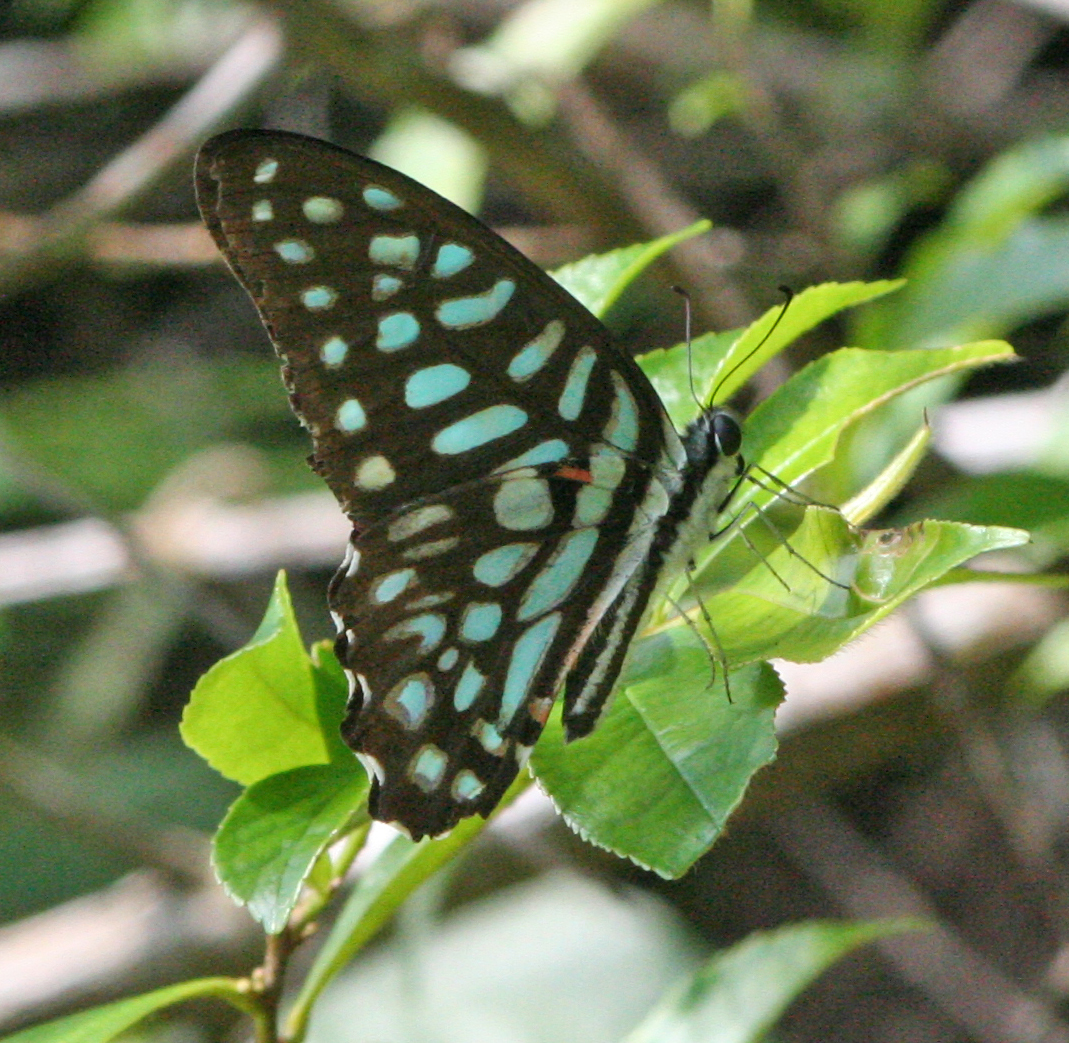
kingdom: Animalia
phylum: Arthropoda
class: Insecta
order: Lepidoptera
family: Papilionidae
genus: Graphium
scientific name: Graphium arycles
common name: Spotted jay
